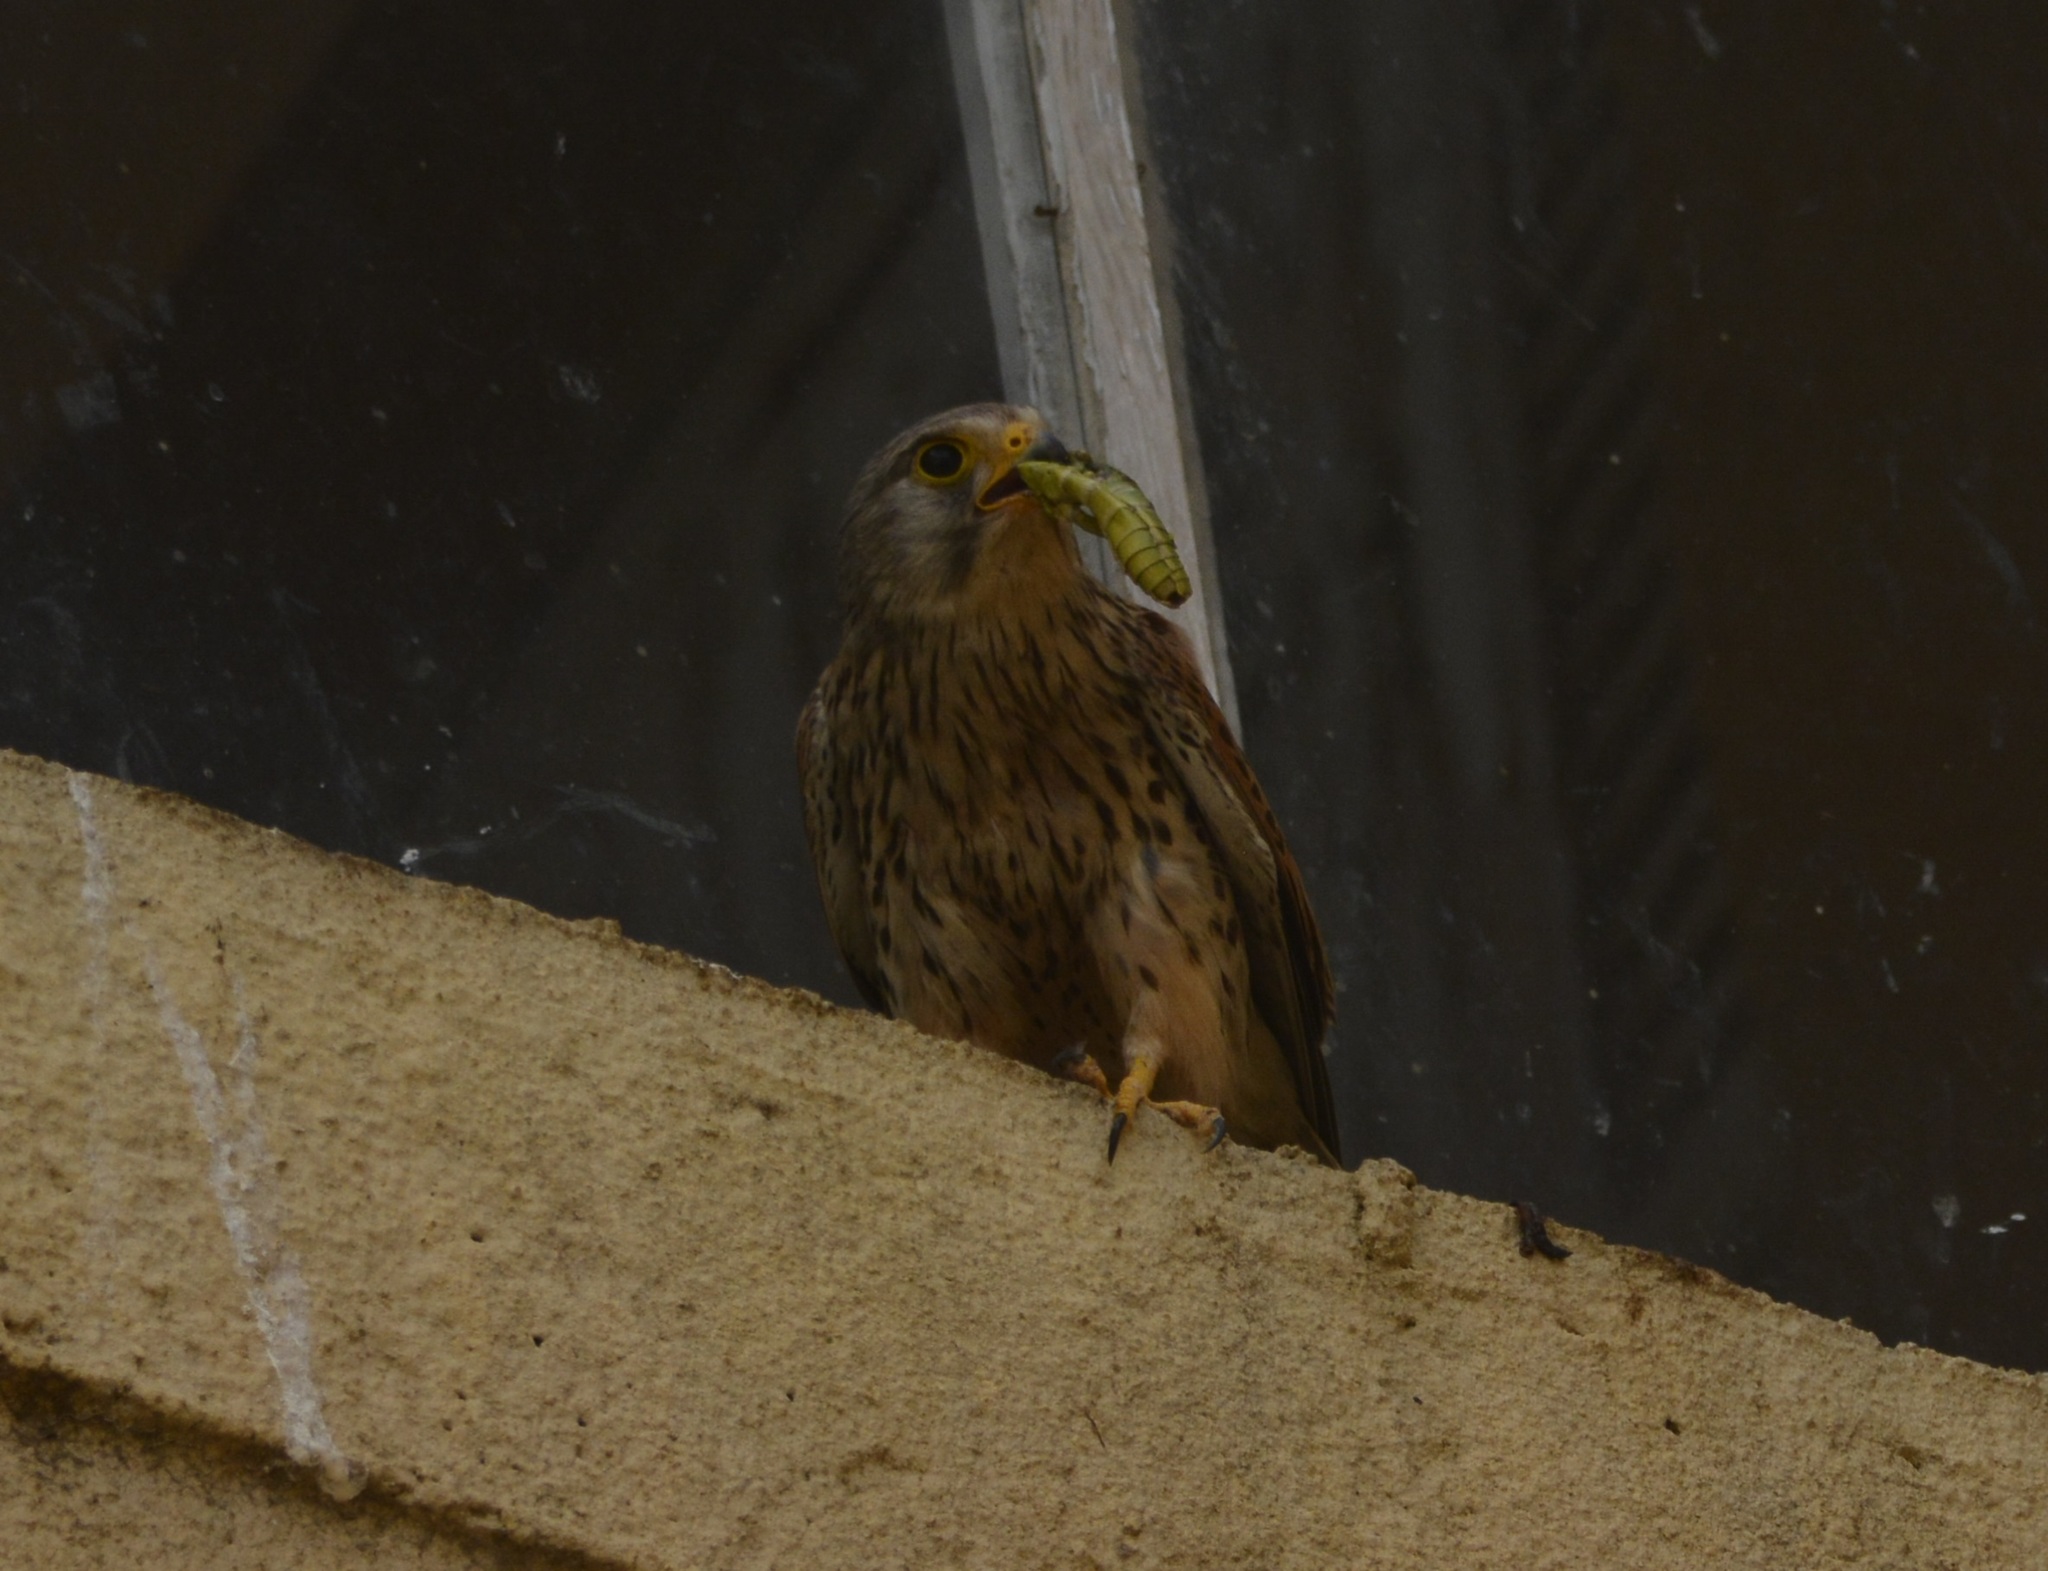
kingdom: Animalia
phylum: Chordata
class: Aves
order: Falconiformes
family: Falconidae
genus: Falco
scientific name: Falco tinnunculus
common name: Common kestrel
